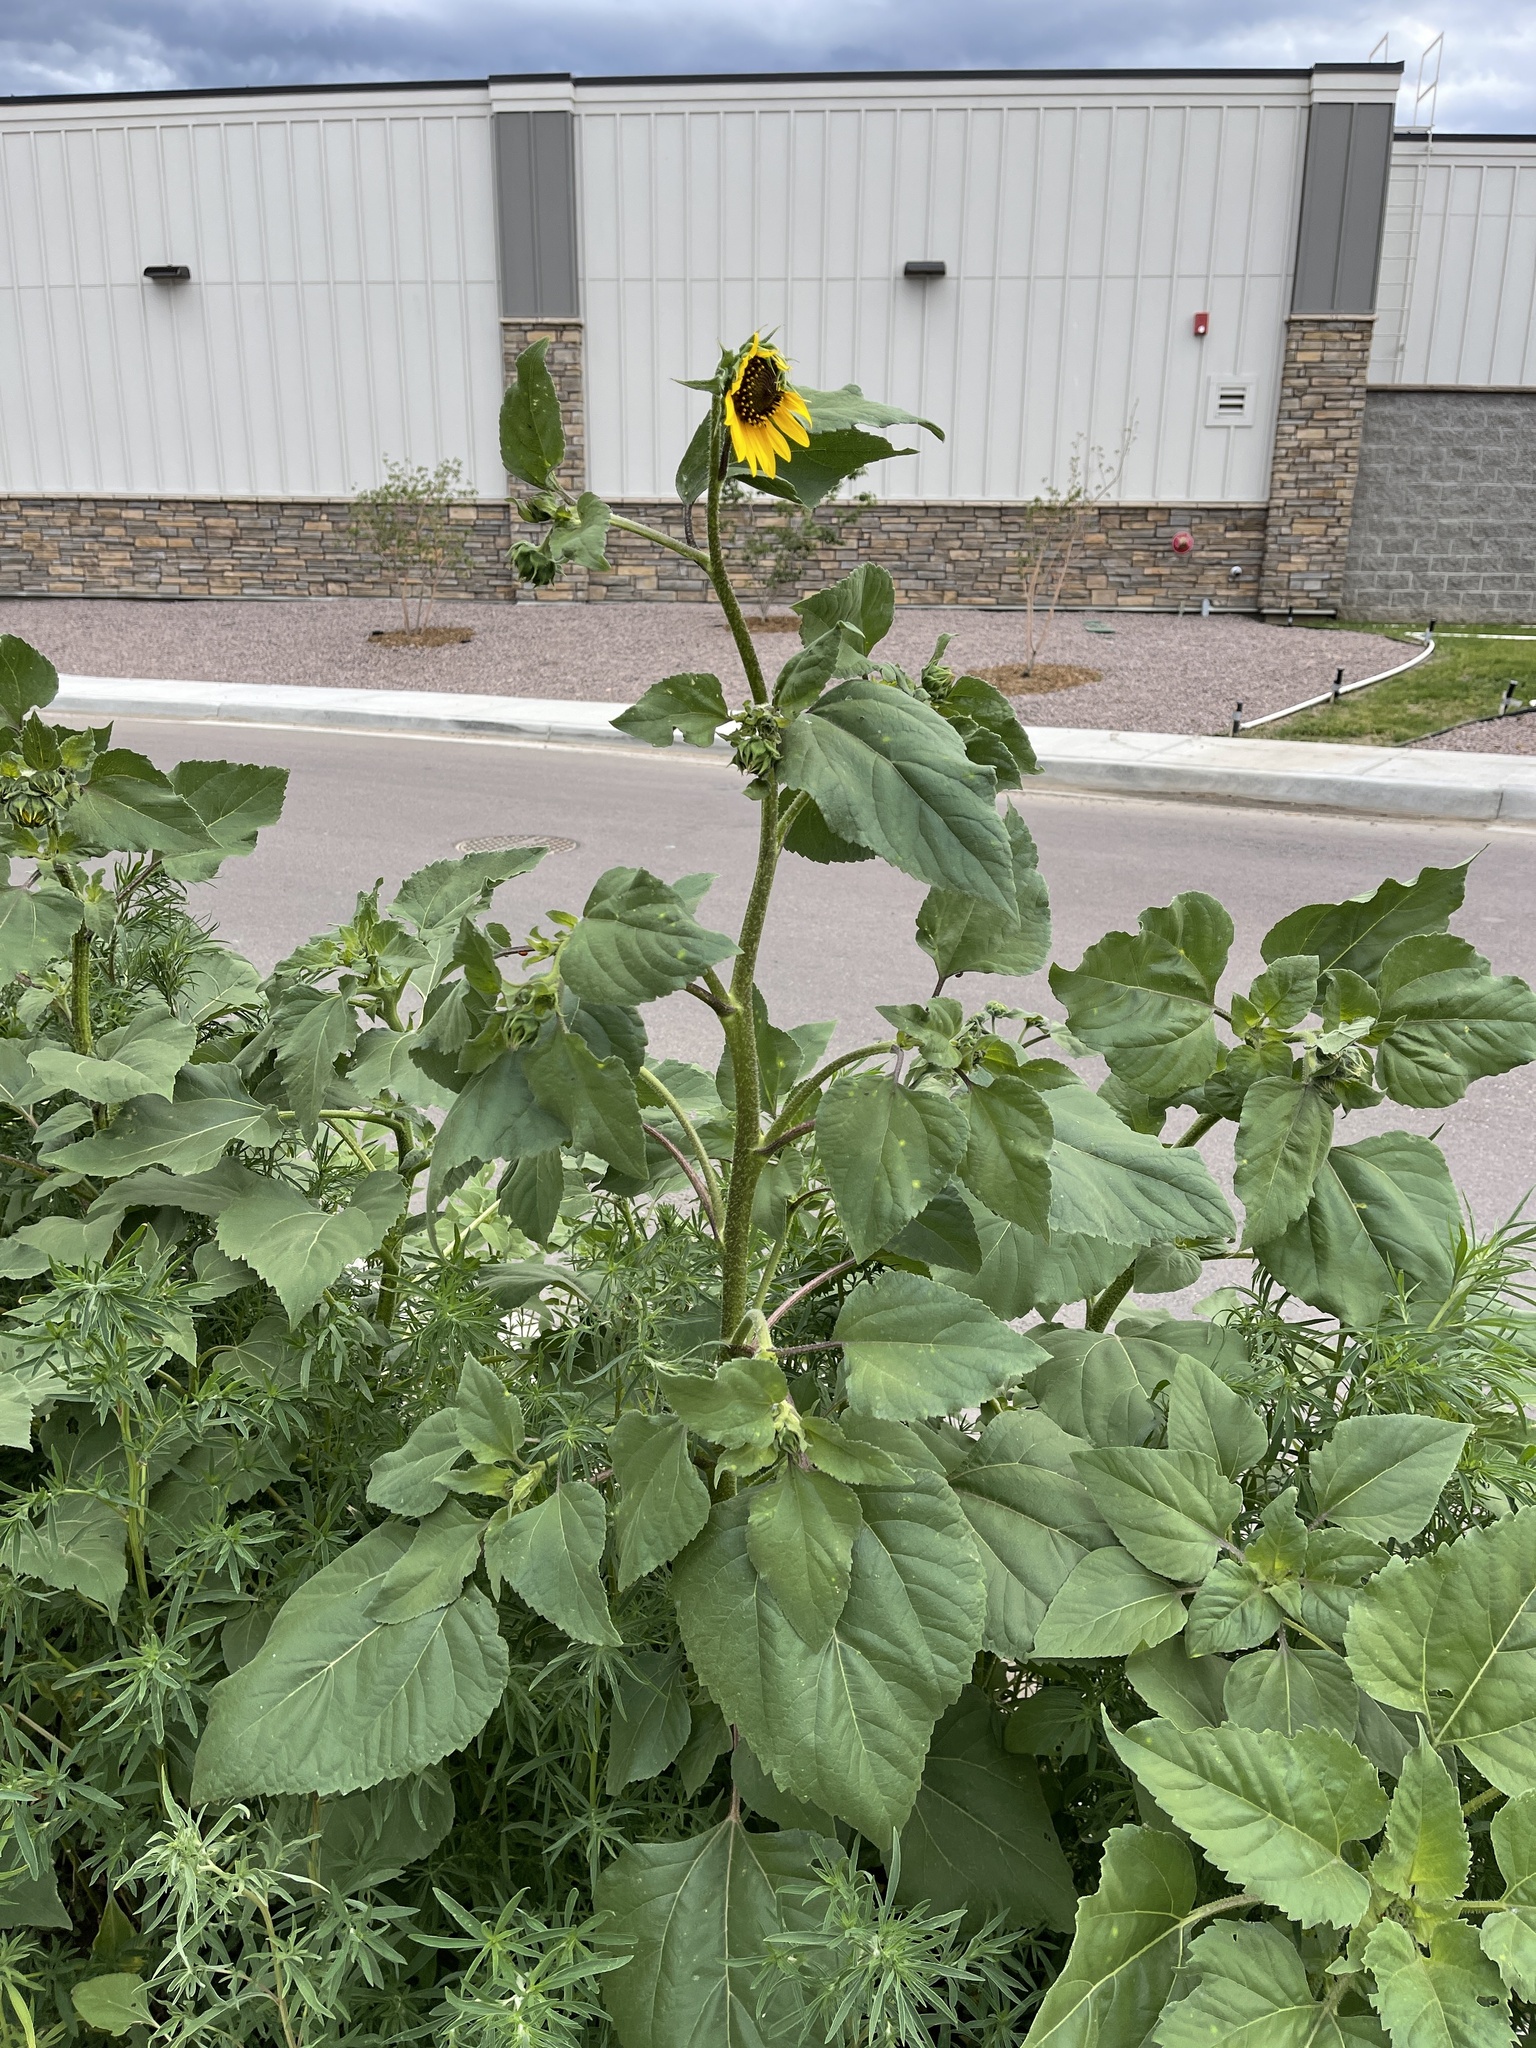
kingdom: Plantae
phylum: Tracheophyta
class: Magnoliopsida
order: Asterales
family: Asteraceae
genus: Helianthus
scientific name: Helianthus annuus
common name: Sunflower
